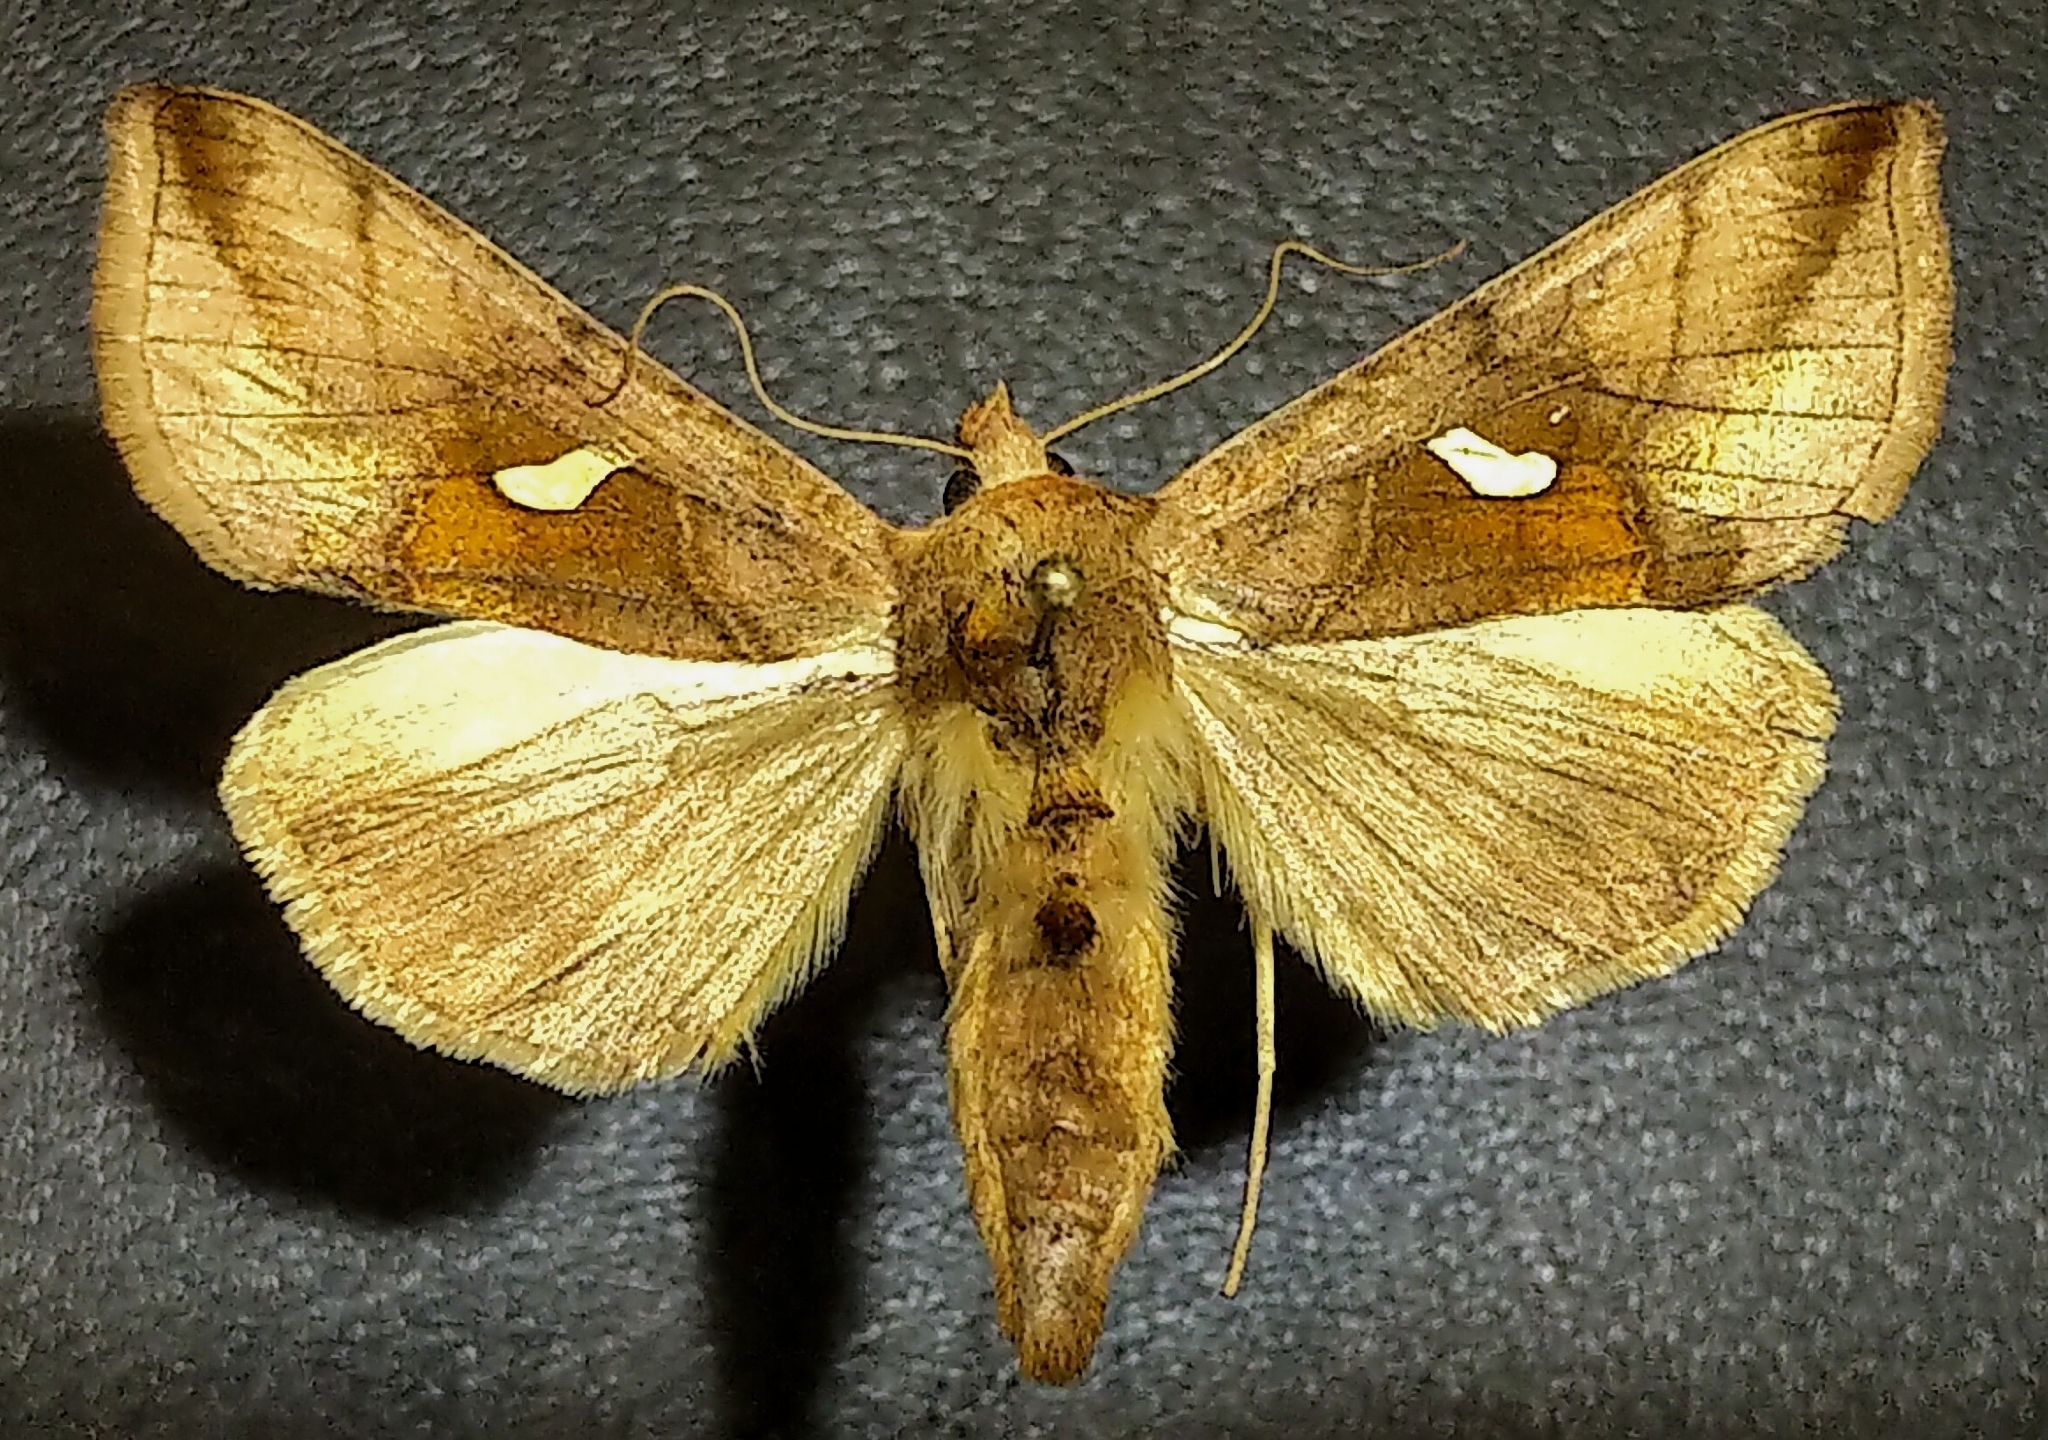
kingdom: Animalia
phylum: Arthropoda
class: Insecta
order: Lepidoptera
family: Noctuidae
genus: Autographa
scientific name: Autographa metallica
